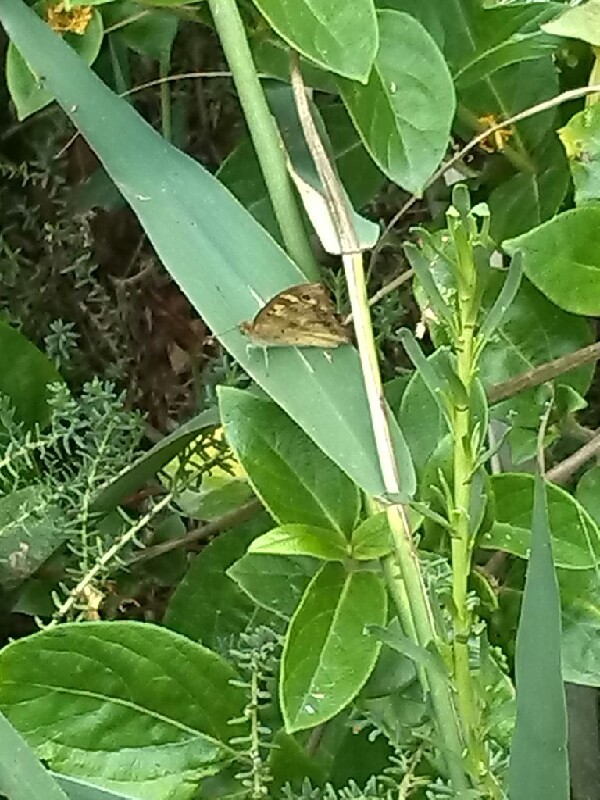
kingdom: Animalia
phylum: Arthropoda
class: Insecta
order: Lepidoptera
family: Nymphalidae
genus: Pararge
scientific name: Pararge aegeria
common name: Speckled wood
